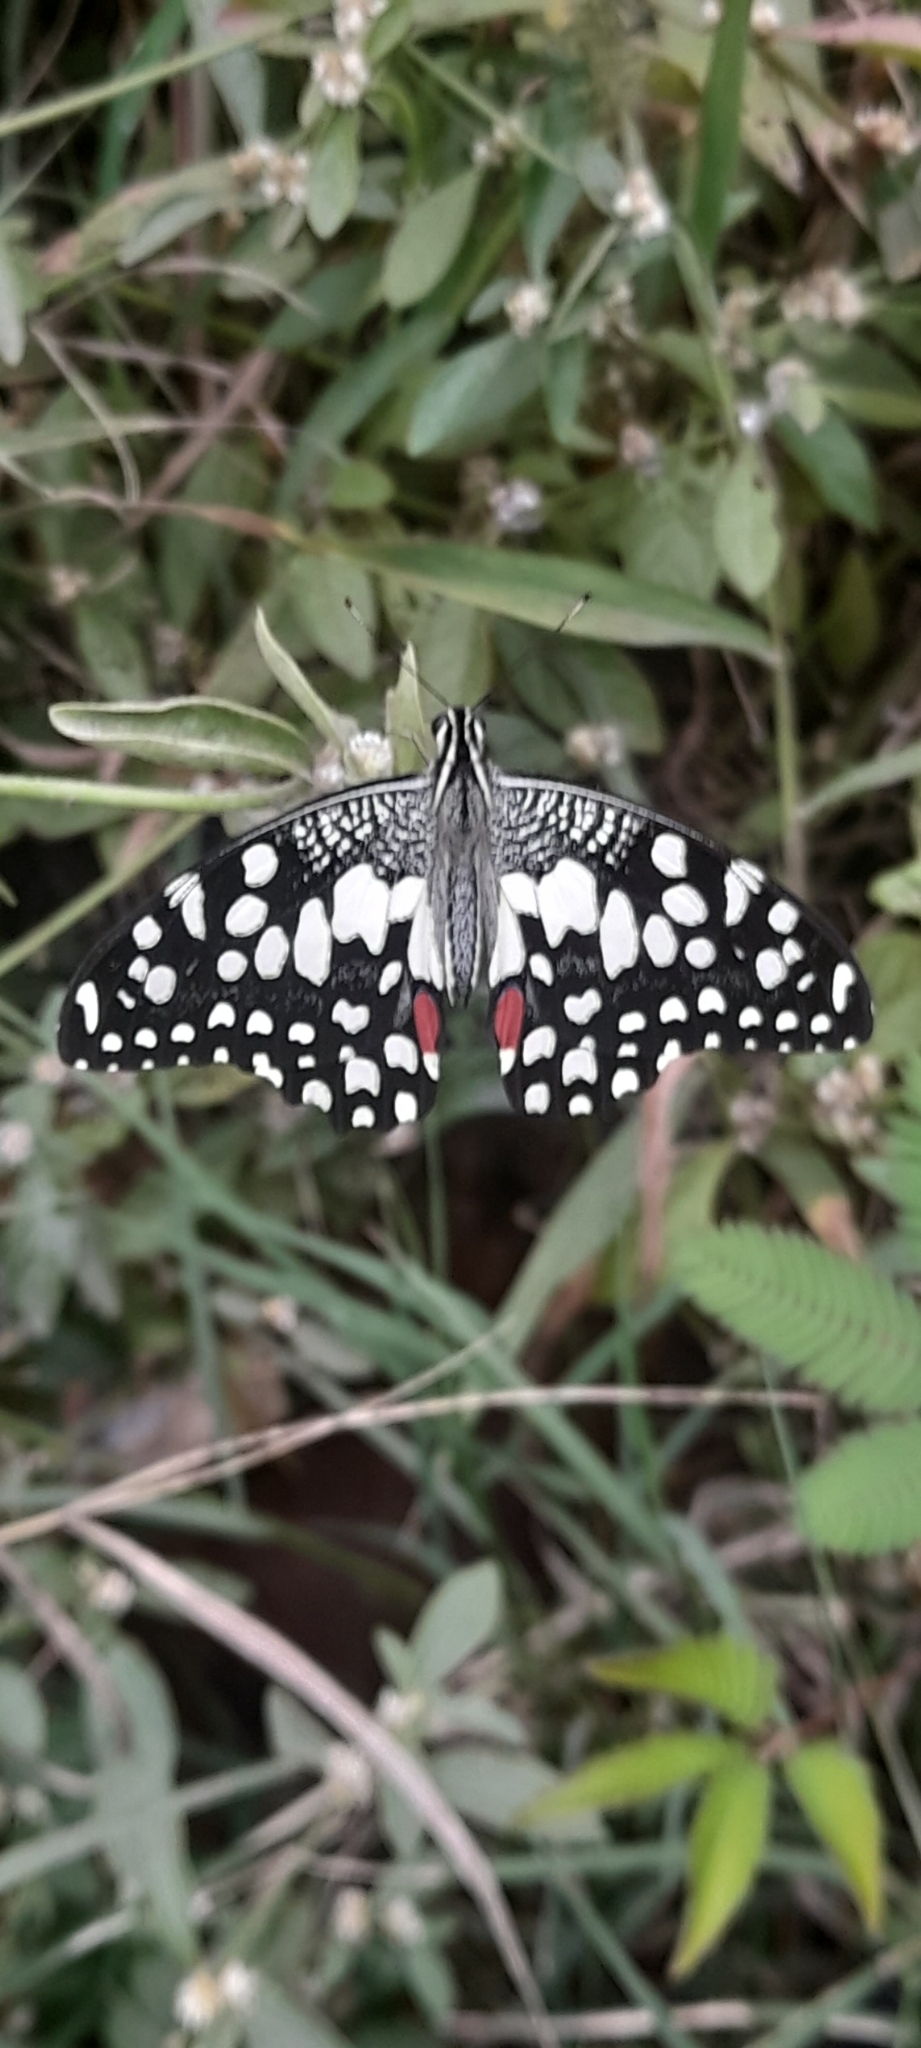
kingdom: Animalia
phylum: Arthropoda
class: Insecta
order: Lepidoptera
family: Papilionidae
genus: Papilio
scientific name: Papilio demoleus
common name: Lime butterfly
